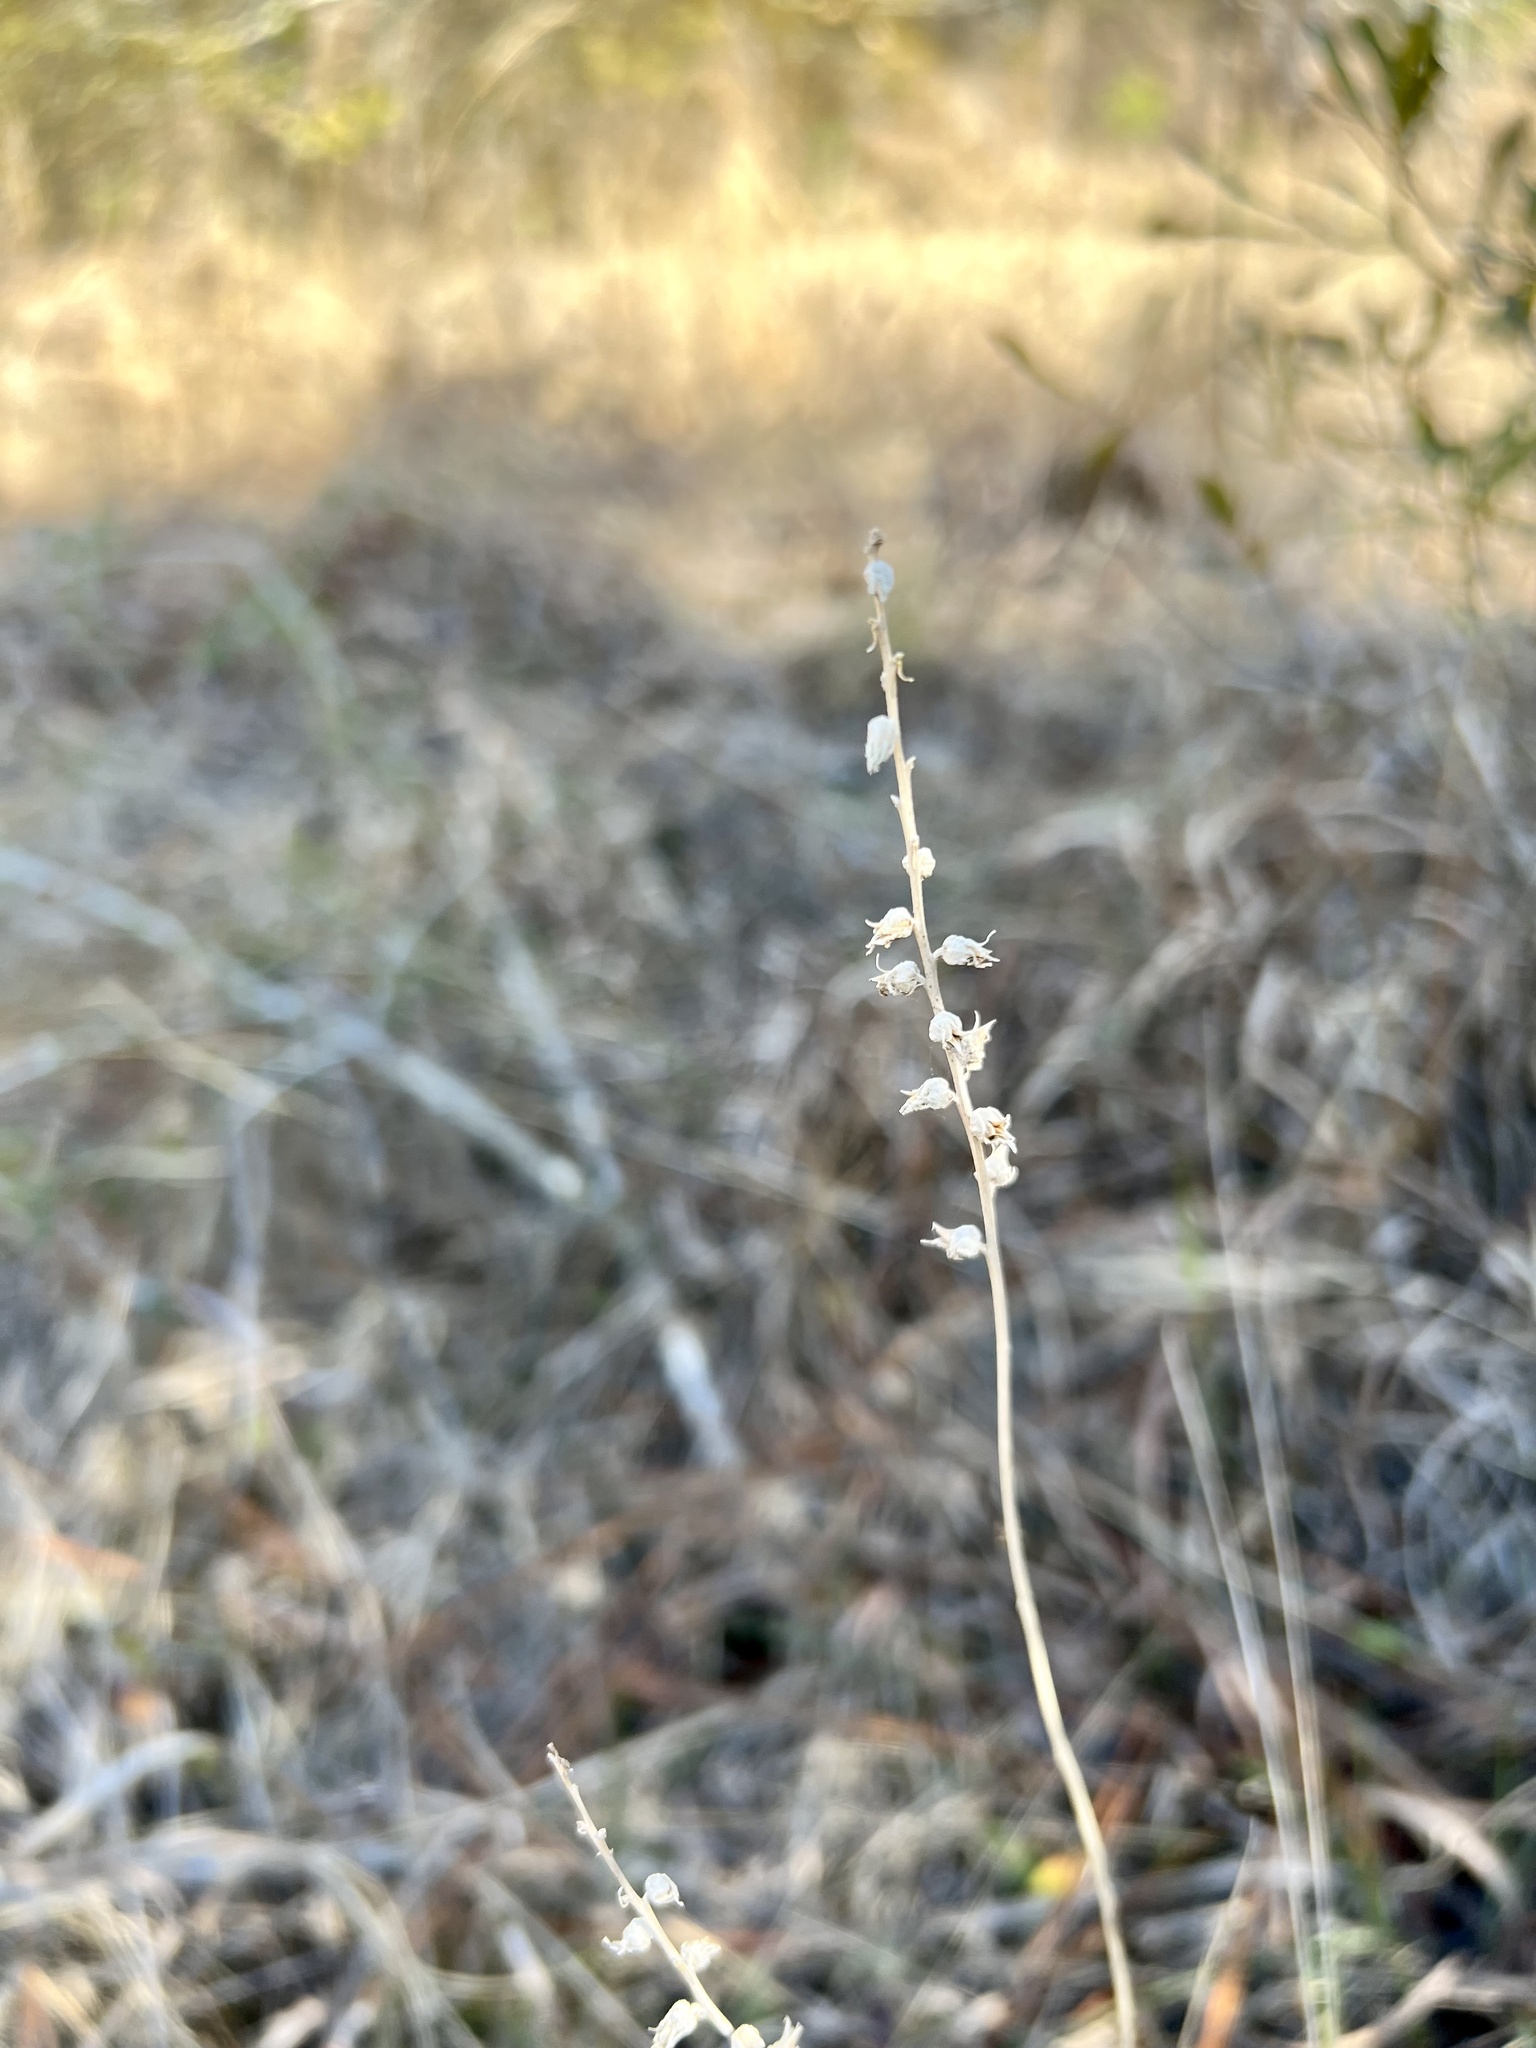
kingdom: Plantae
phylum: Tracheophyta
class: Liliopsida
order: Dioscoreales
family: Nartheciaceae
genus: Aletris
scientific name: Aletris aurea
